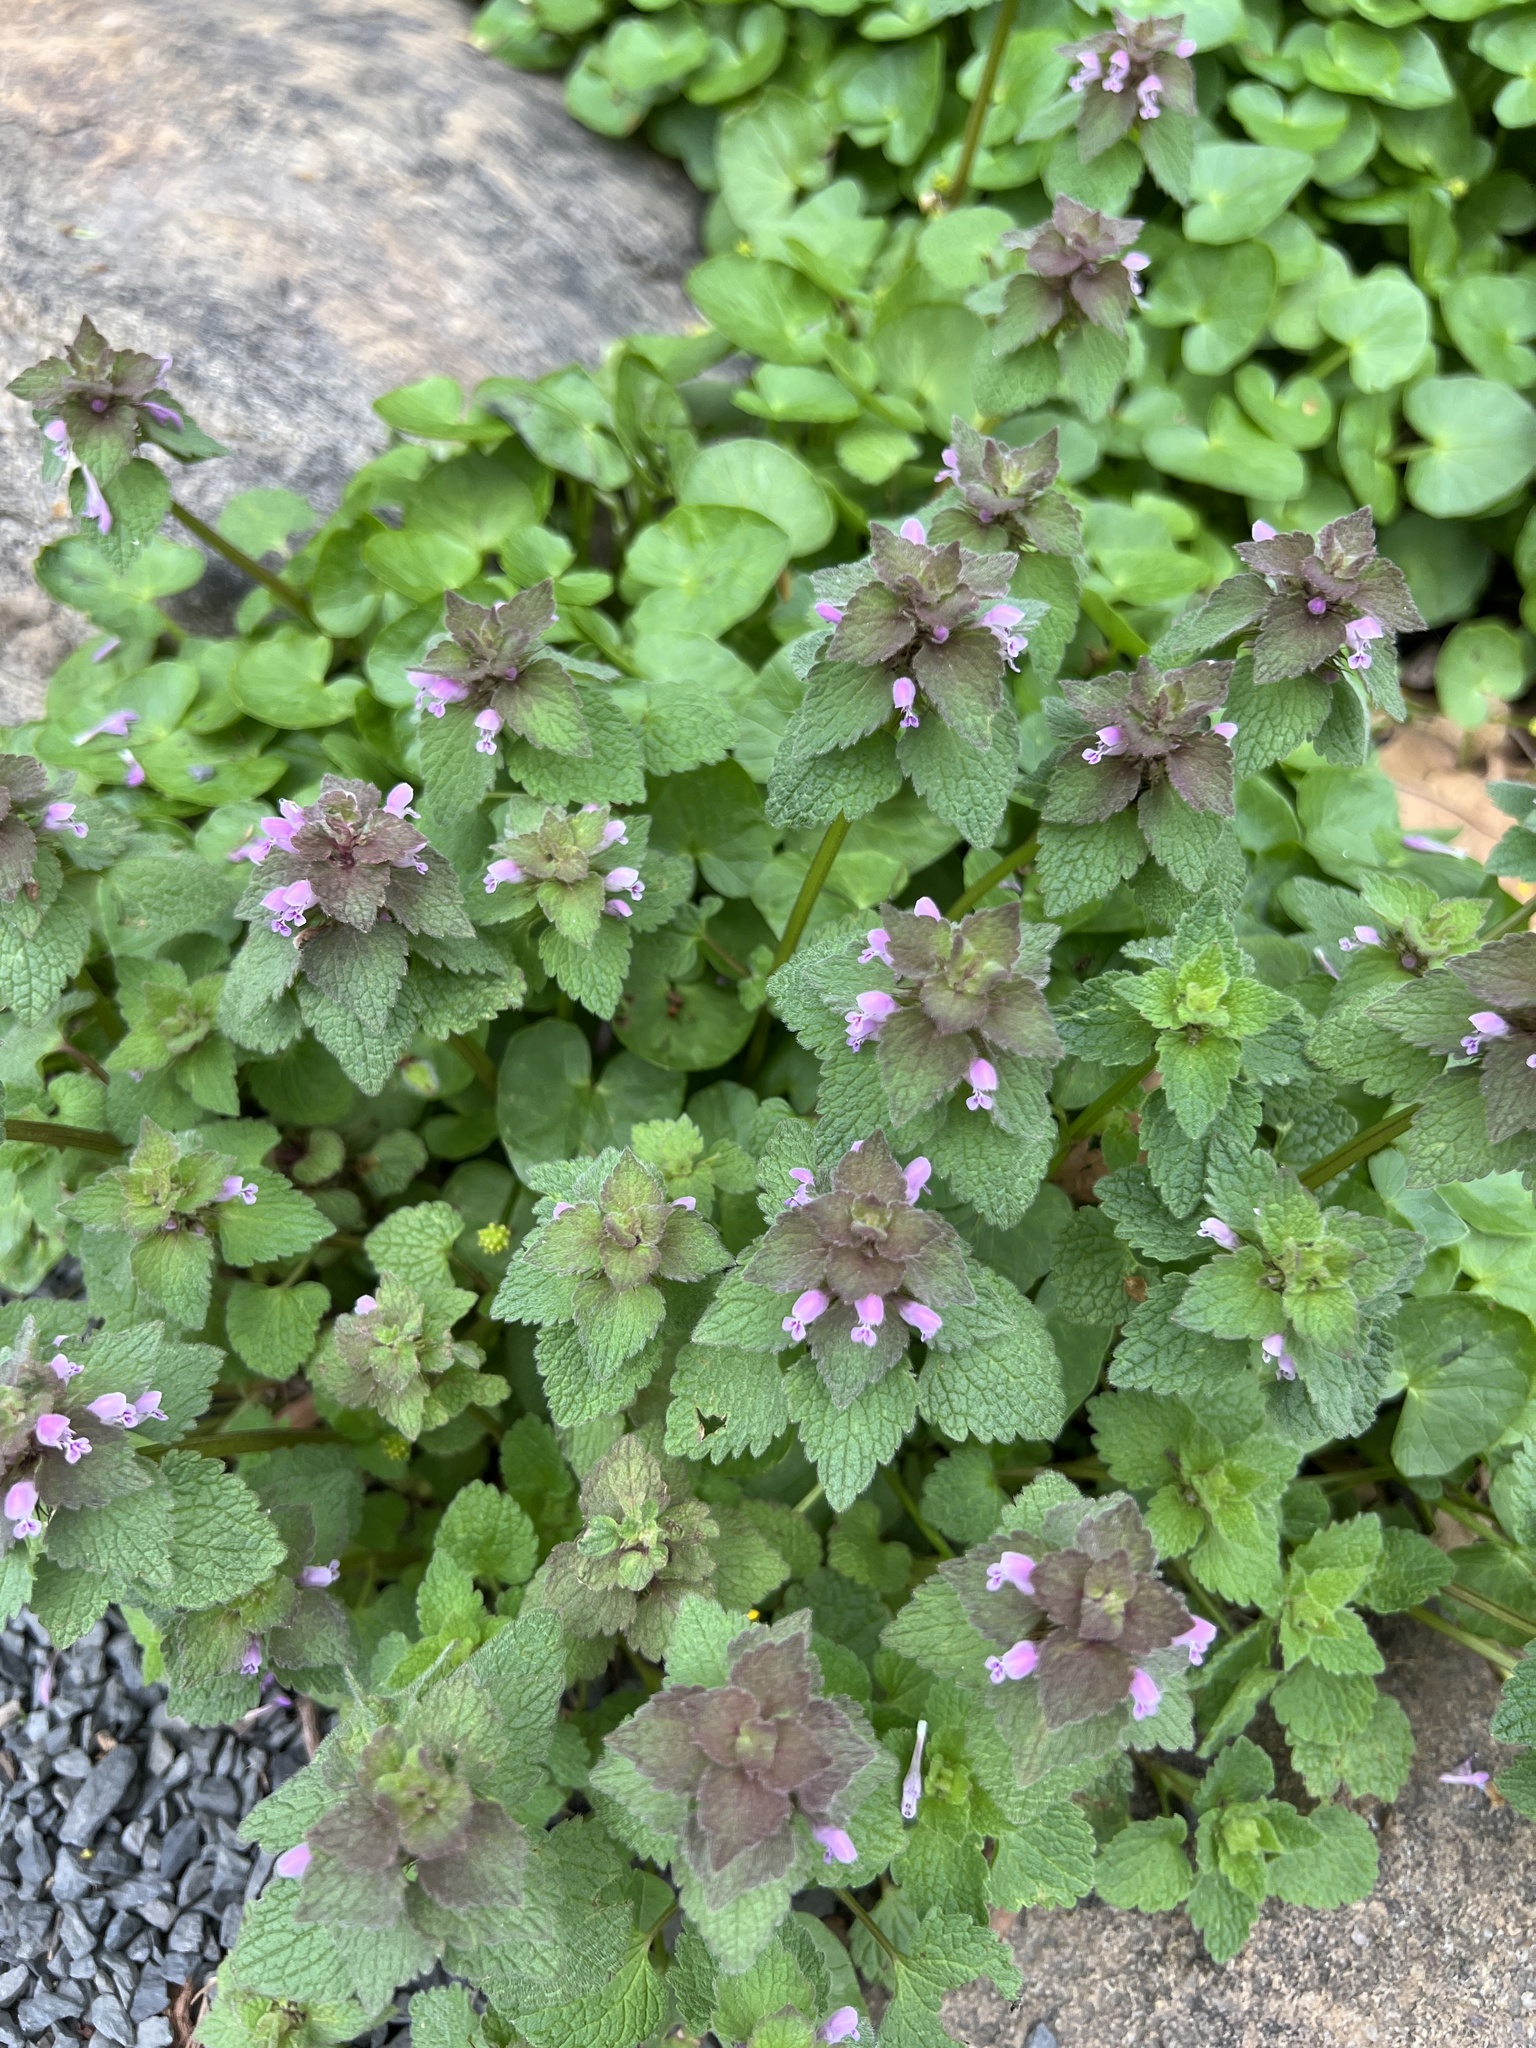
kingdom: Plantae
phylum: Tracheophyta
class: Magnoliopsida
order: Lamiales
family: Lamiaceae
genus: Lamium
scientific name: Lamium purpureum
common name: Red dead-nettle
